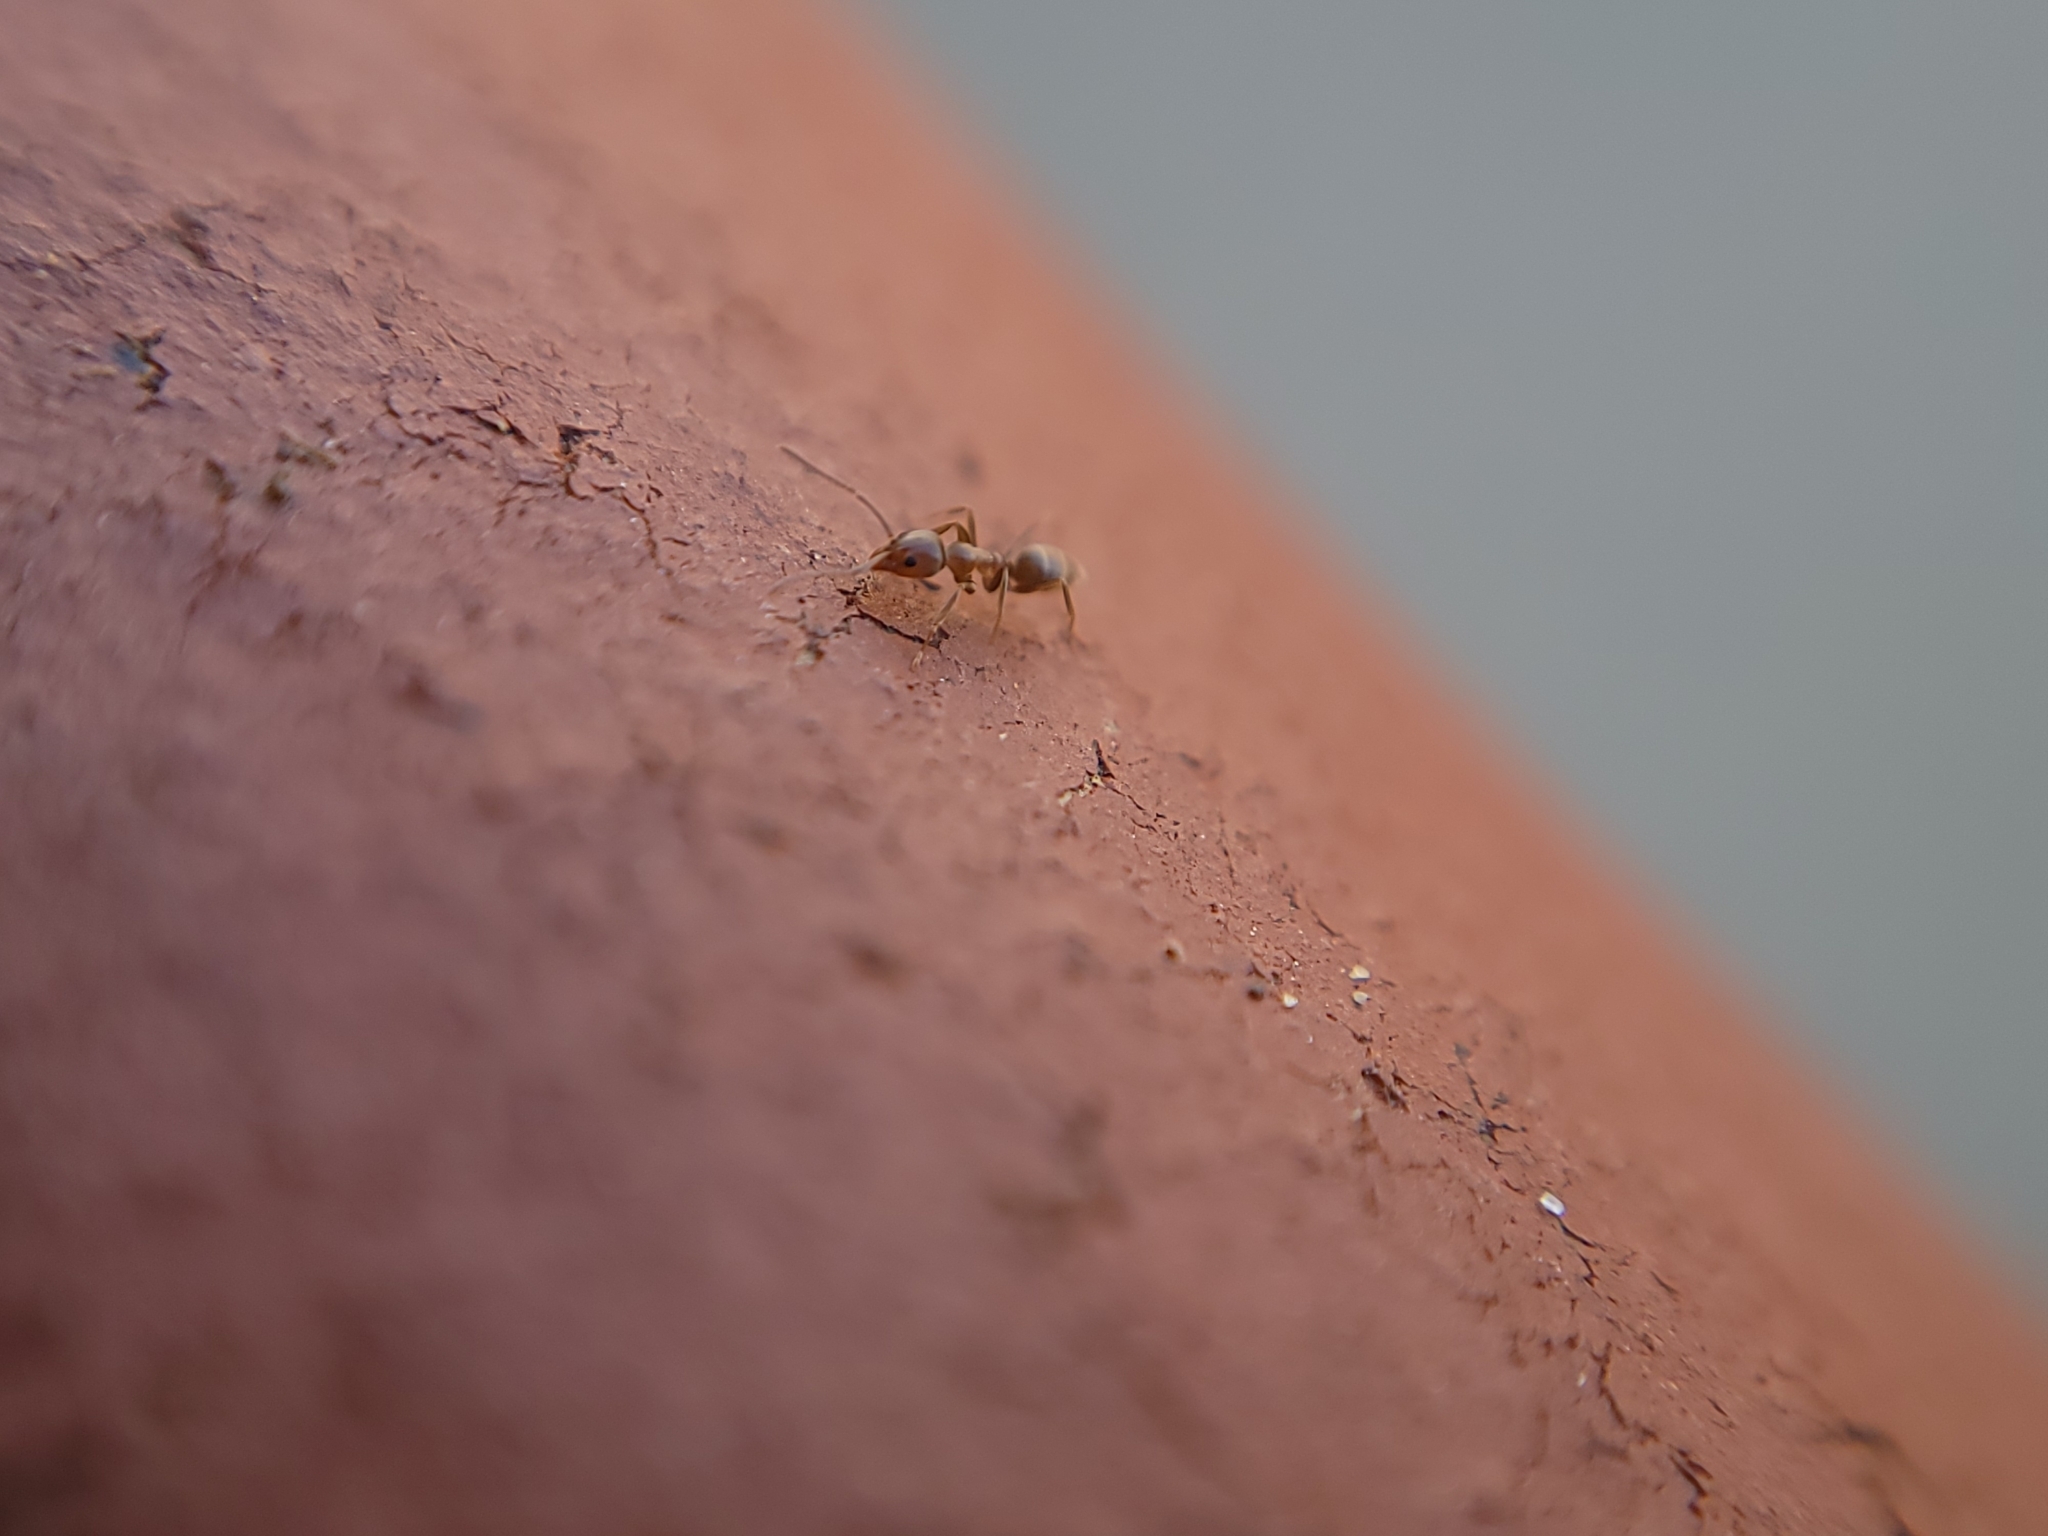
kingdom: Animalia
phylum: Arthropoda
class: Insecta
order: Hymenoptera
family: Formicidae
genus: Linepithema
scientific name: Linepithema humile
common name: Argentine ant
